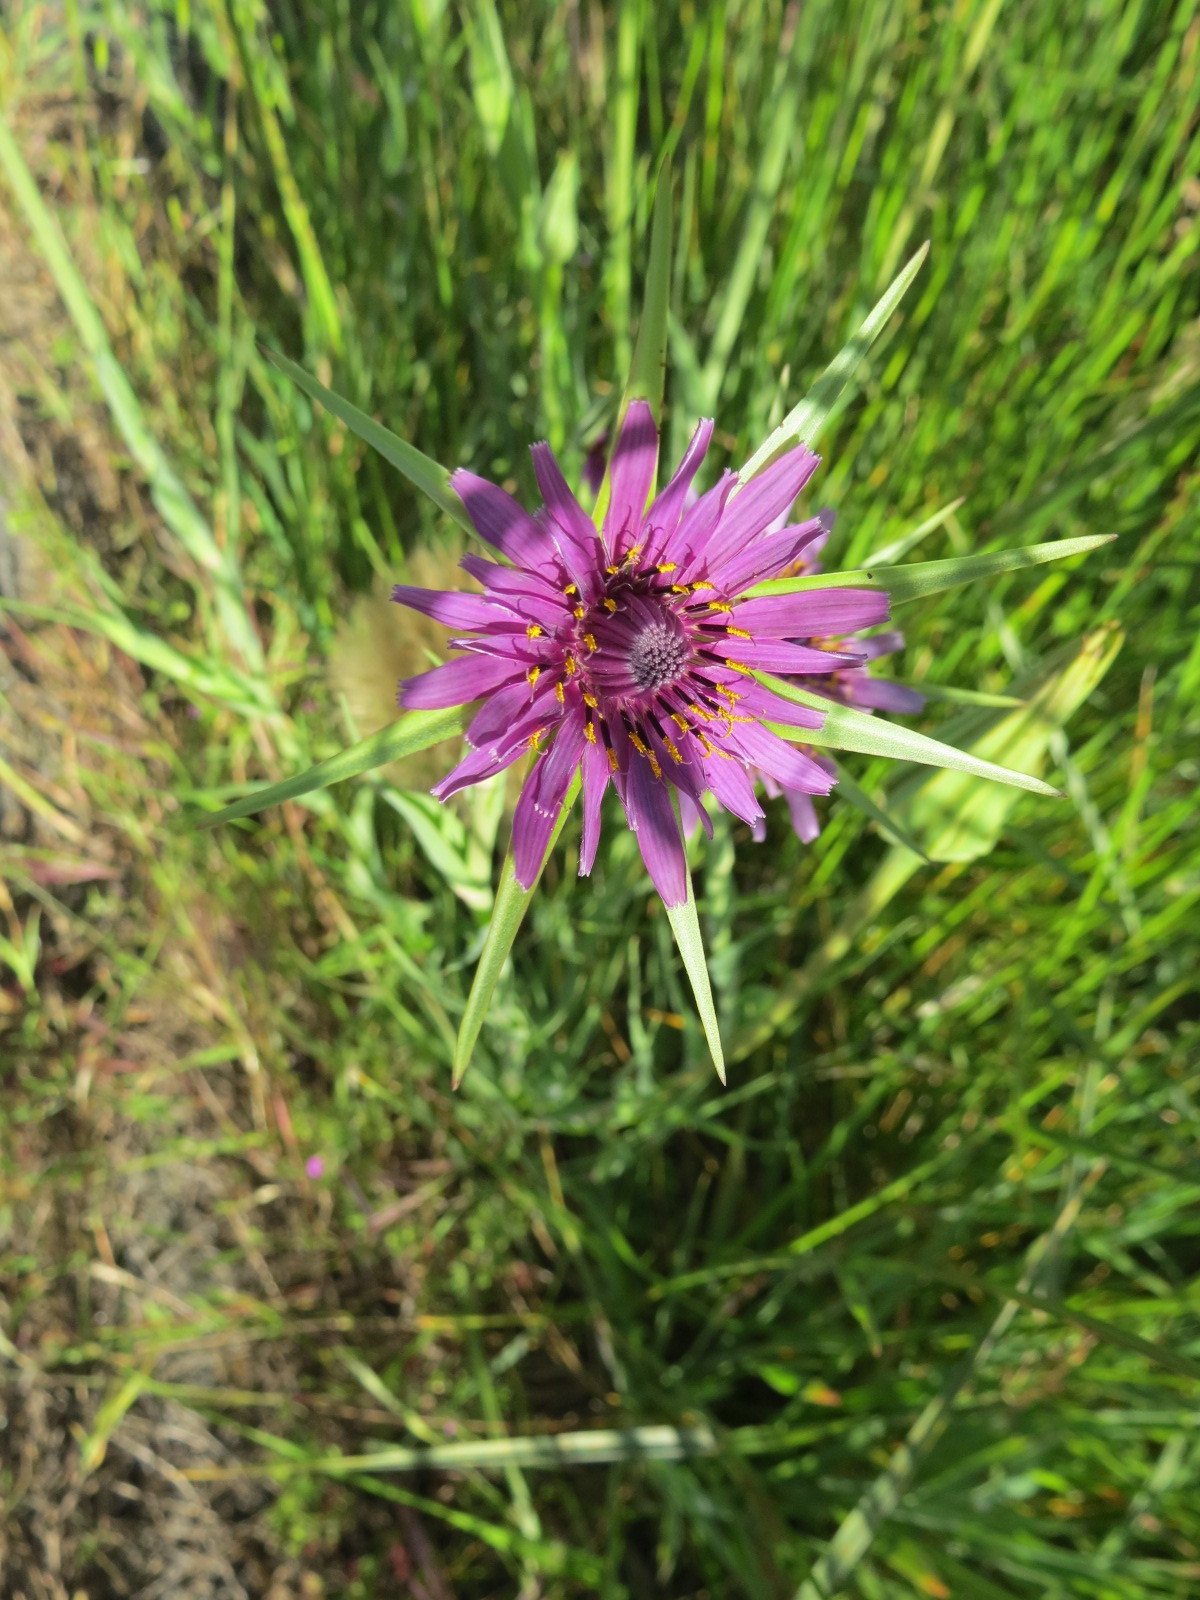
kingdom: Plantae
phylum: Tracheophyta
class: Magnoliopsida
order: Asterales
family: Asteraceae
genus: Tragopogon
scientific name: Tragopogon porrifolius
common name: Salsify
